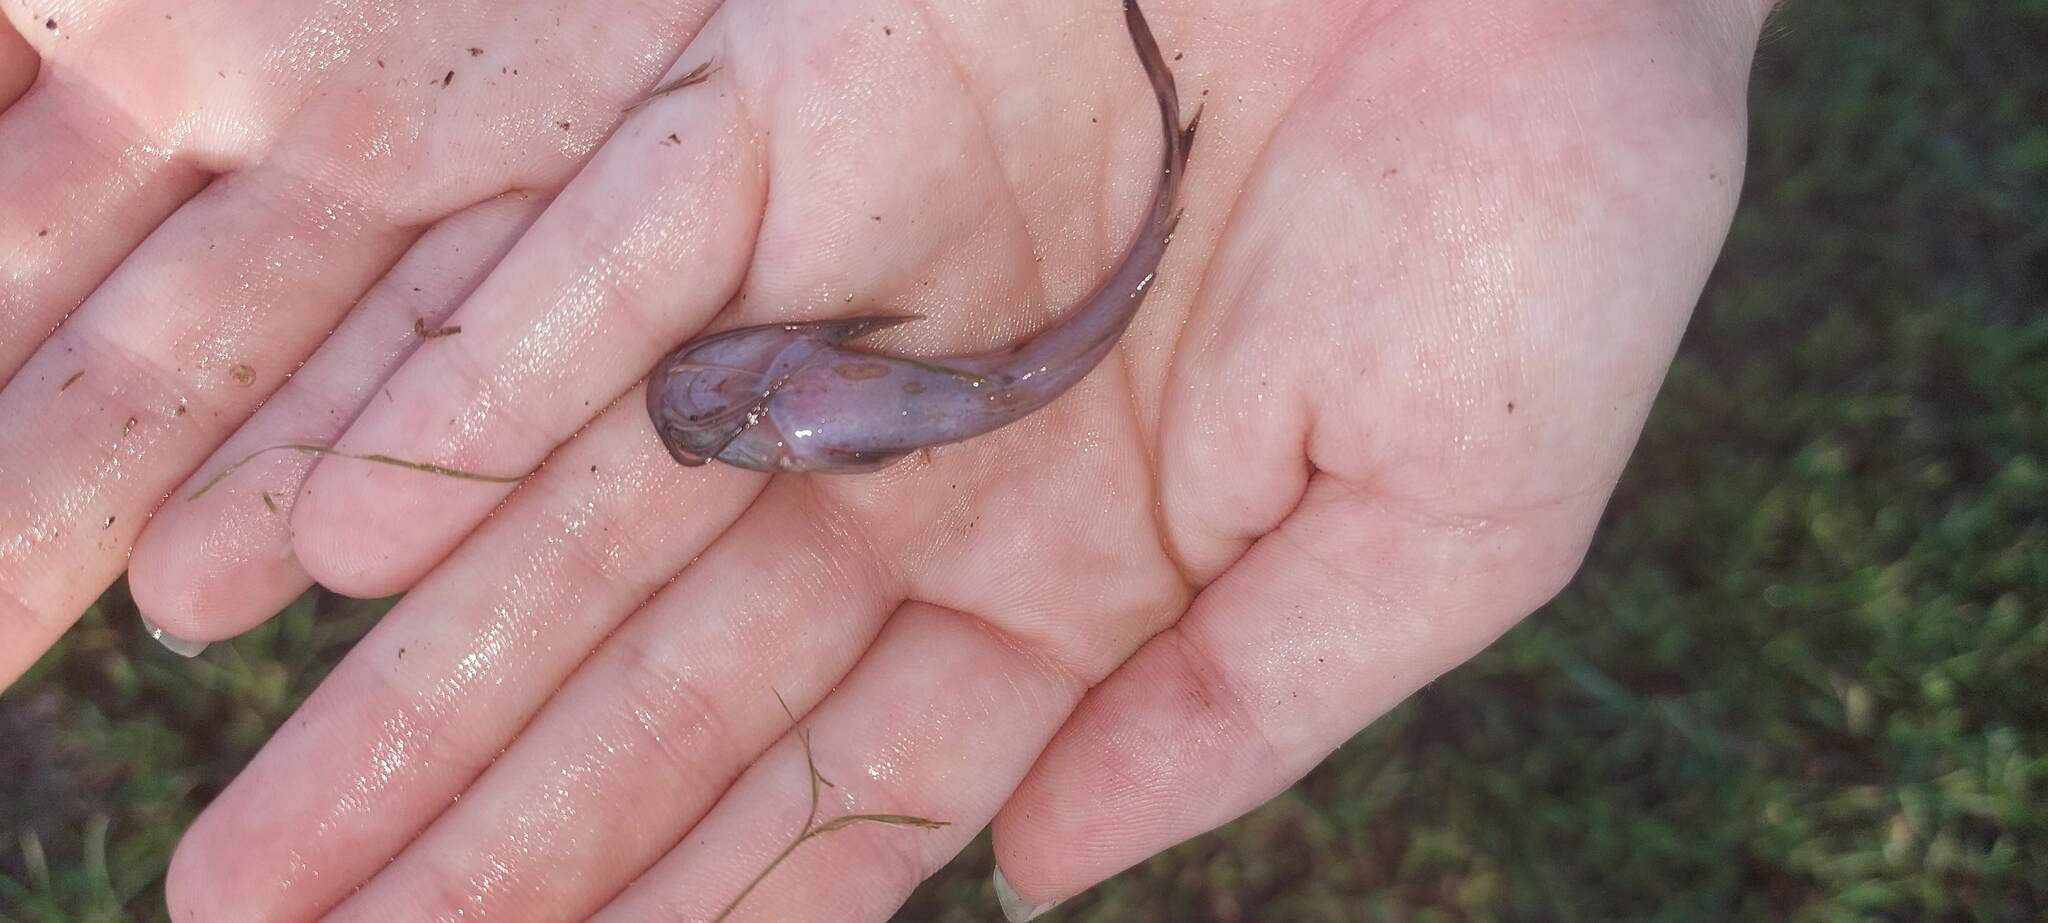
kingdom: Animalia
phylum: Chordata
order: Siluriformes
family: Clariidae
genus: Clarias
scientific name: Clarias batrachus
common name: Walking catfish
